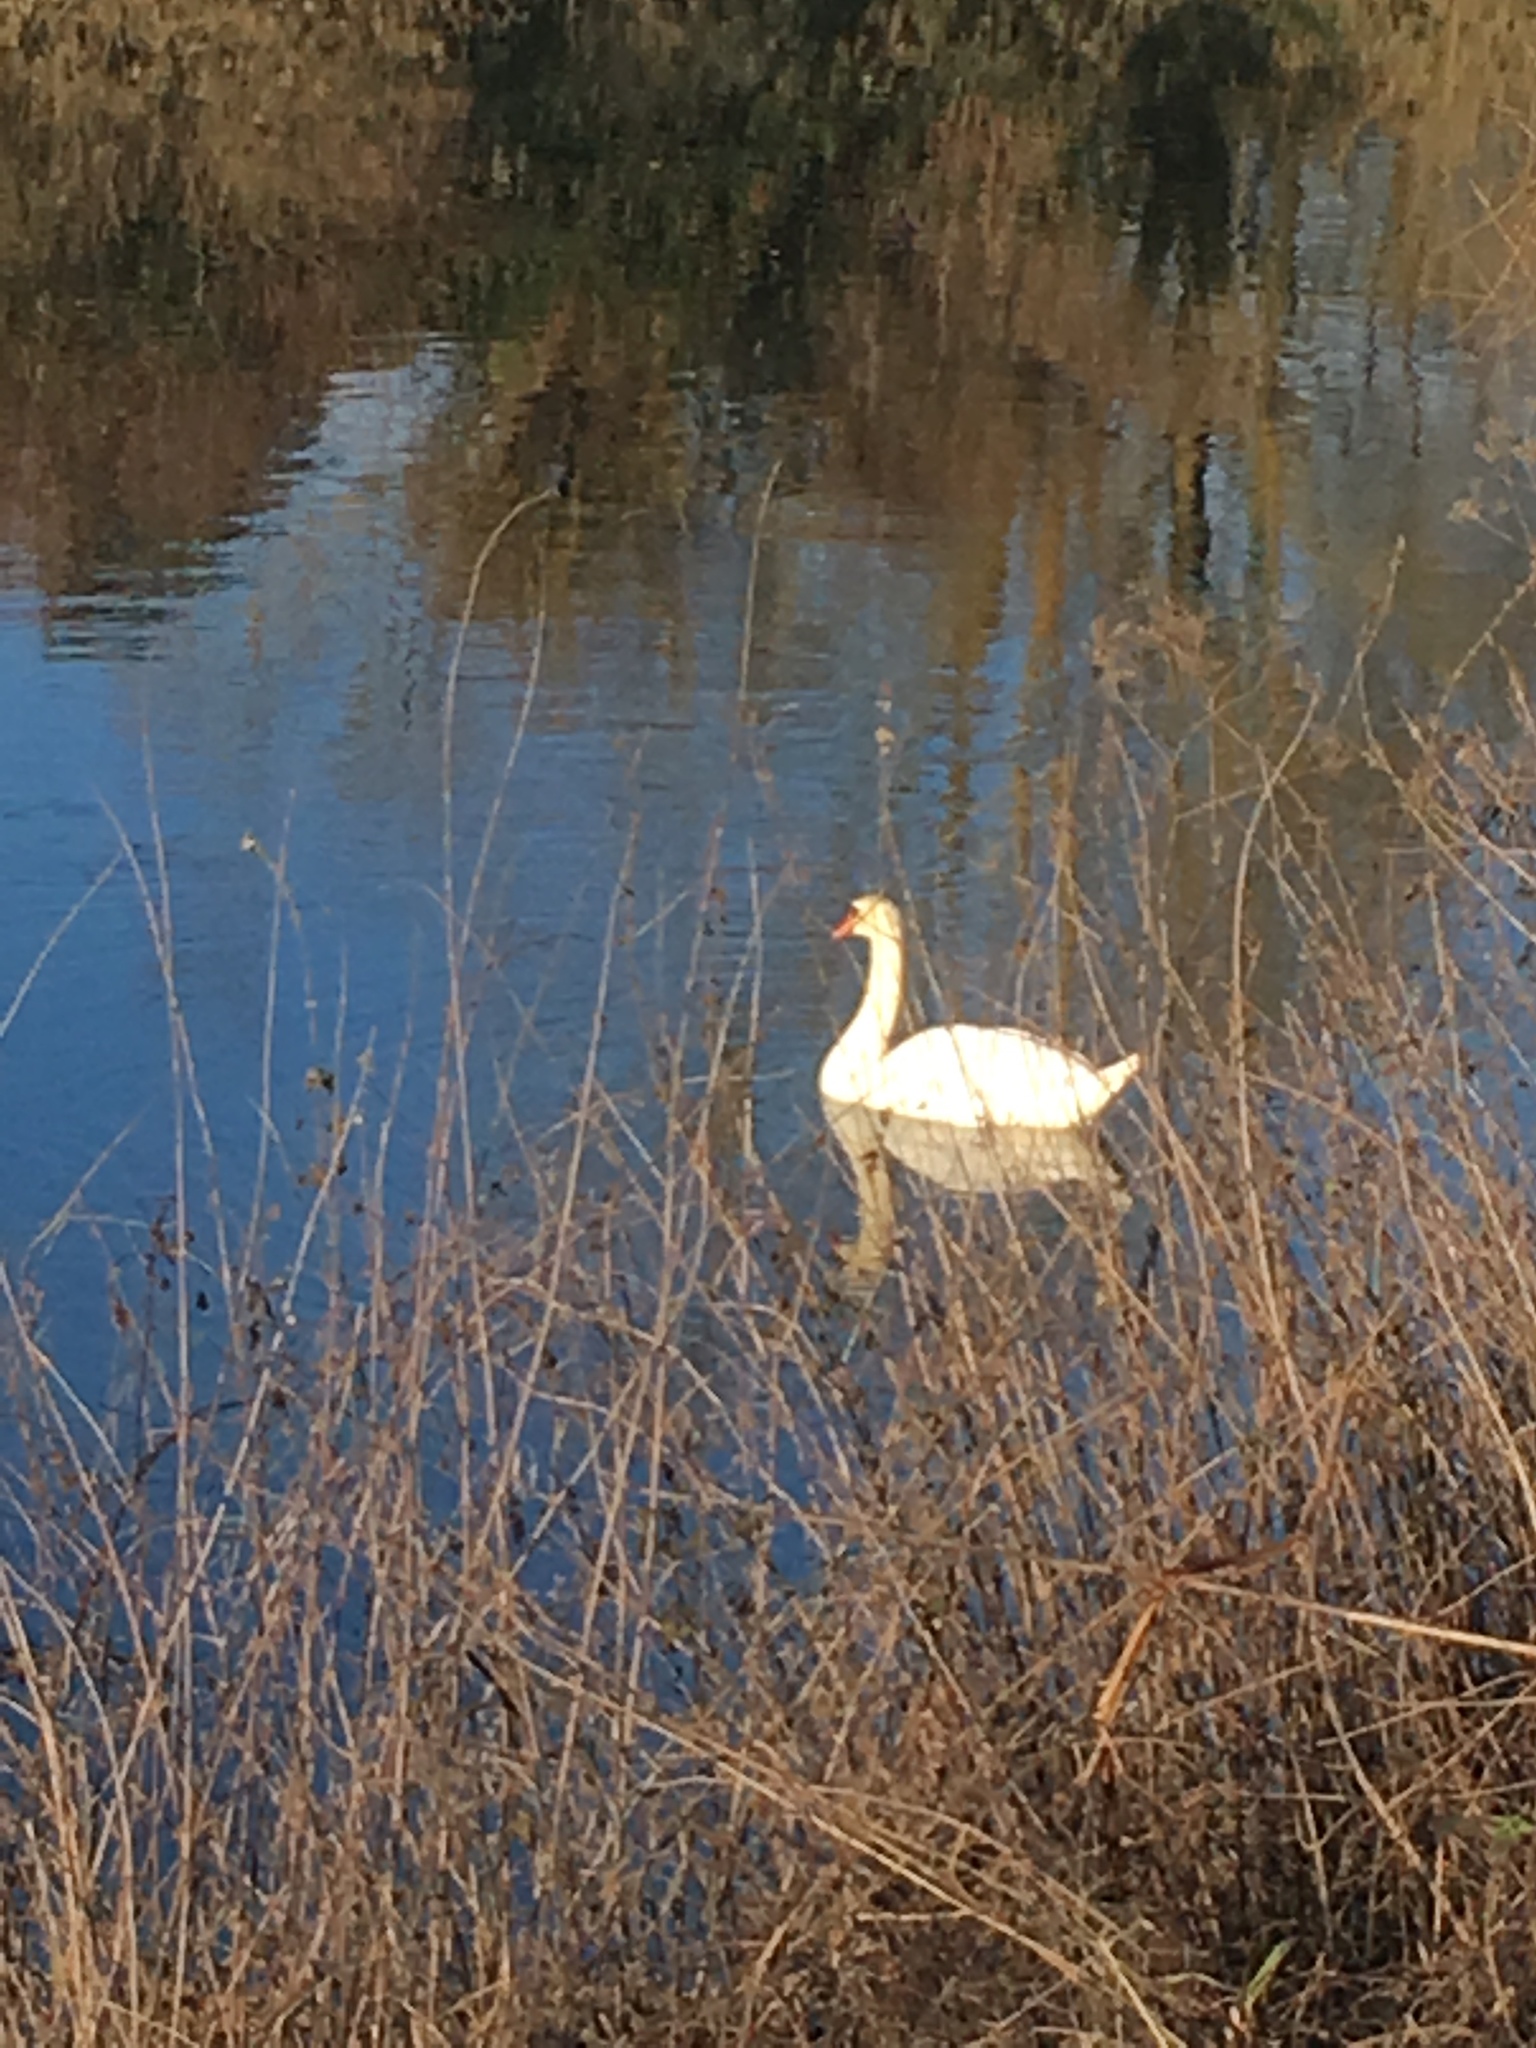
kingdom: Animalia
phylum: Chordata
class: Aves
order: Anseriformes
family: Anatidae
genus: Cygnus
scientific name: Cygnus olor
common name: Mute swan
